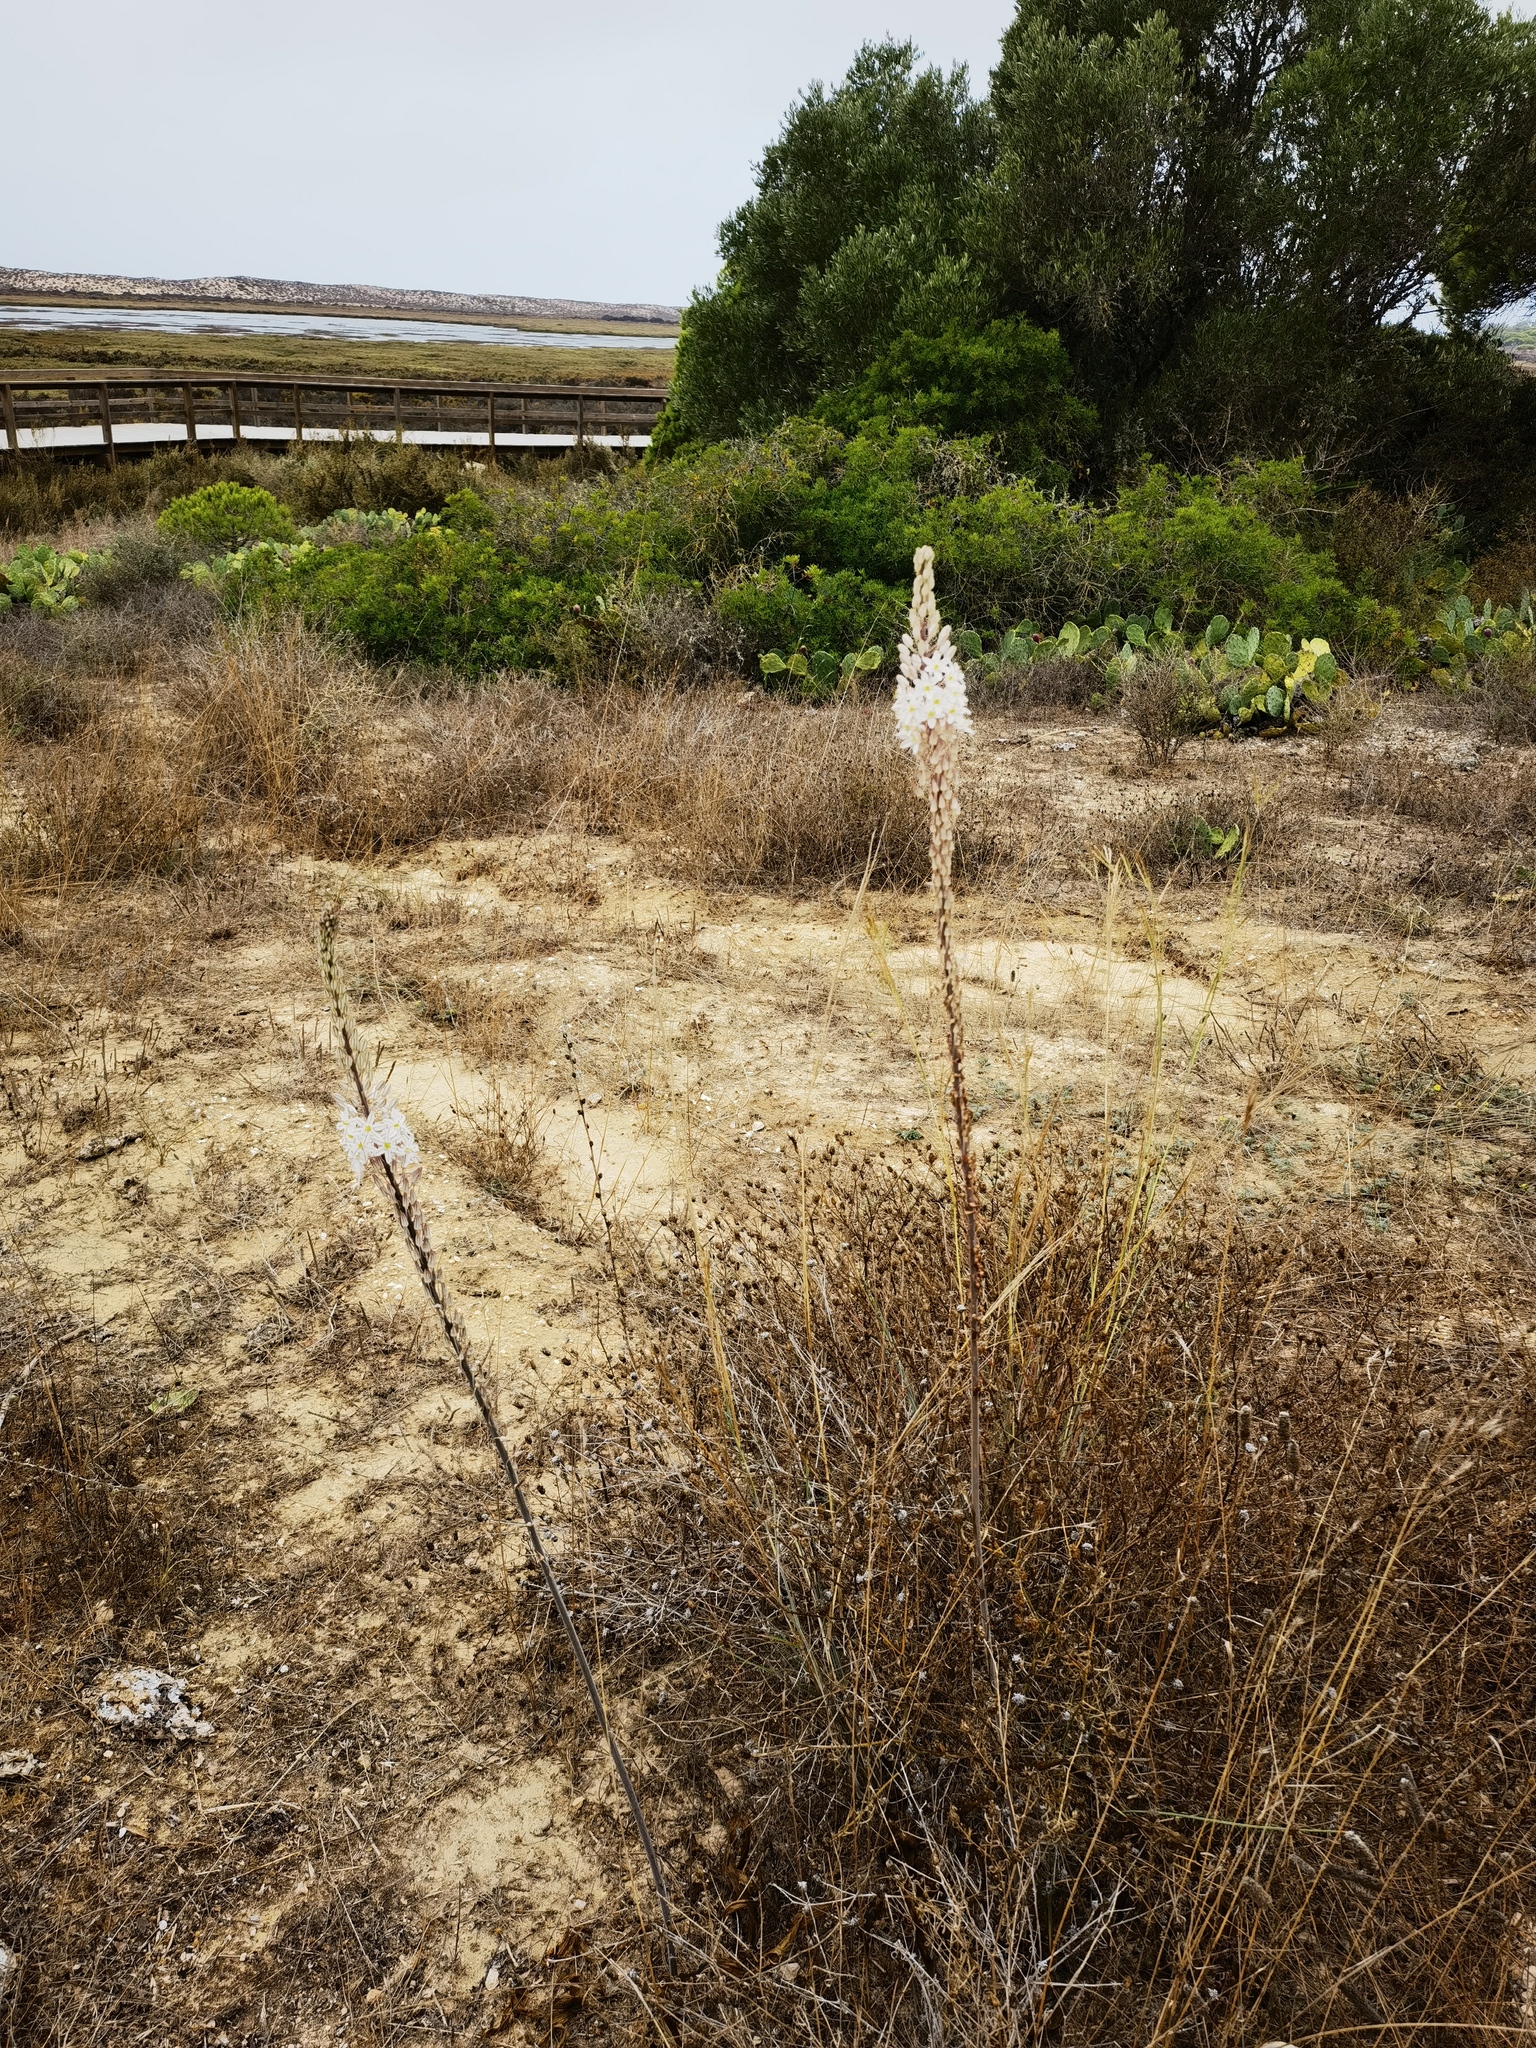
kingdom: Plantae
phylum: Tracheophyta
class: Liliopsida
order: Asparagales
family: Asparagaceae
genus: Drimia
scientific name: Drimia maritima
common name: Maritime squill
